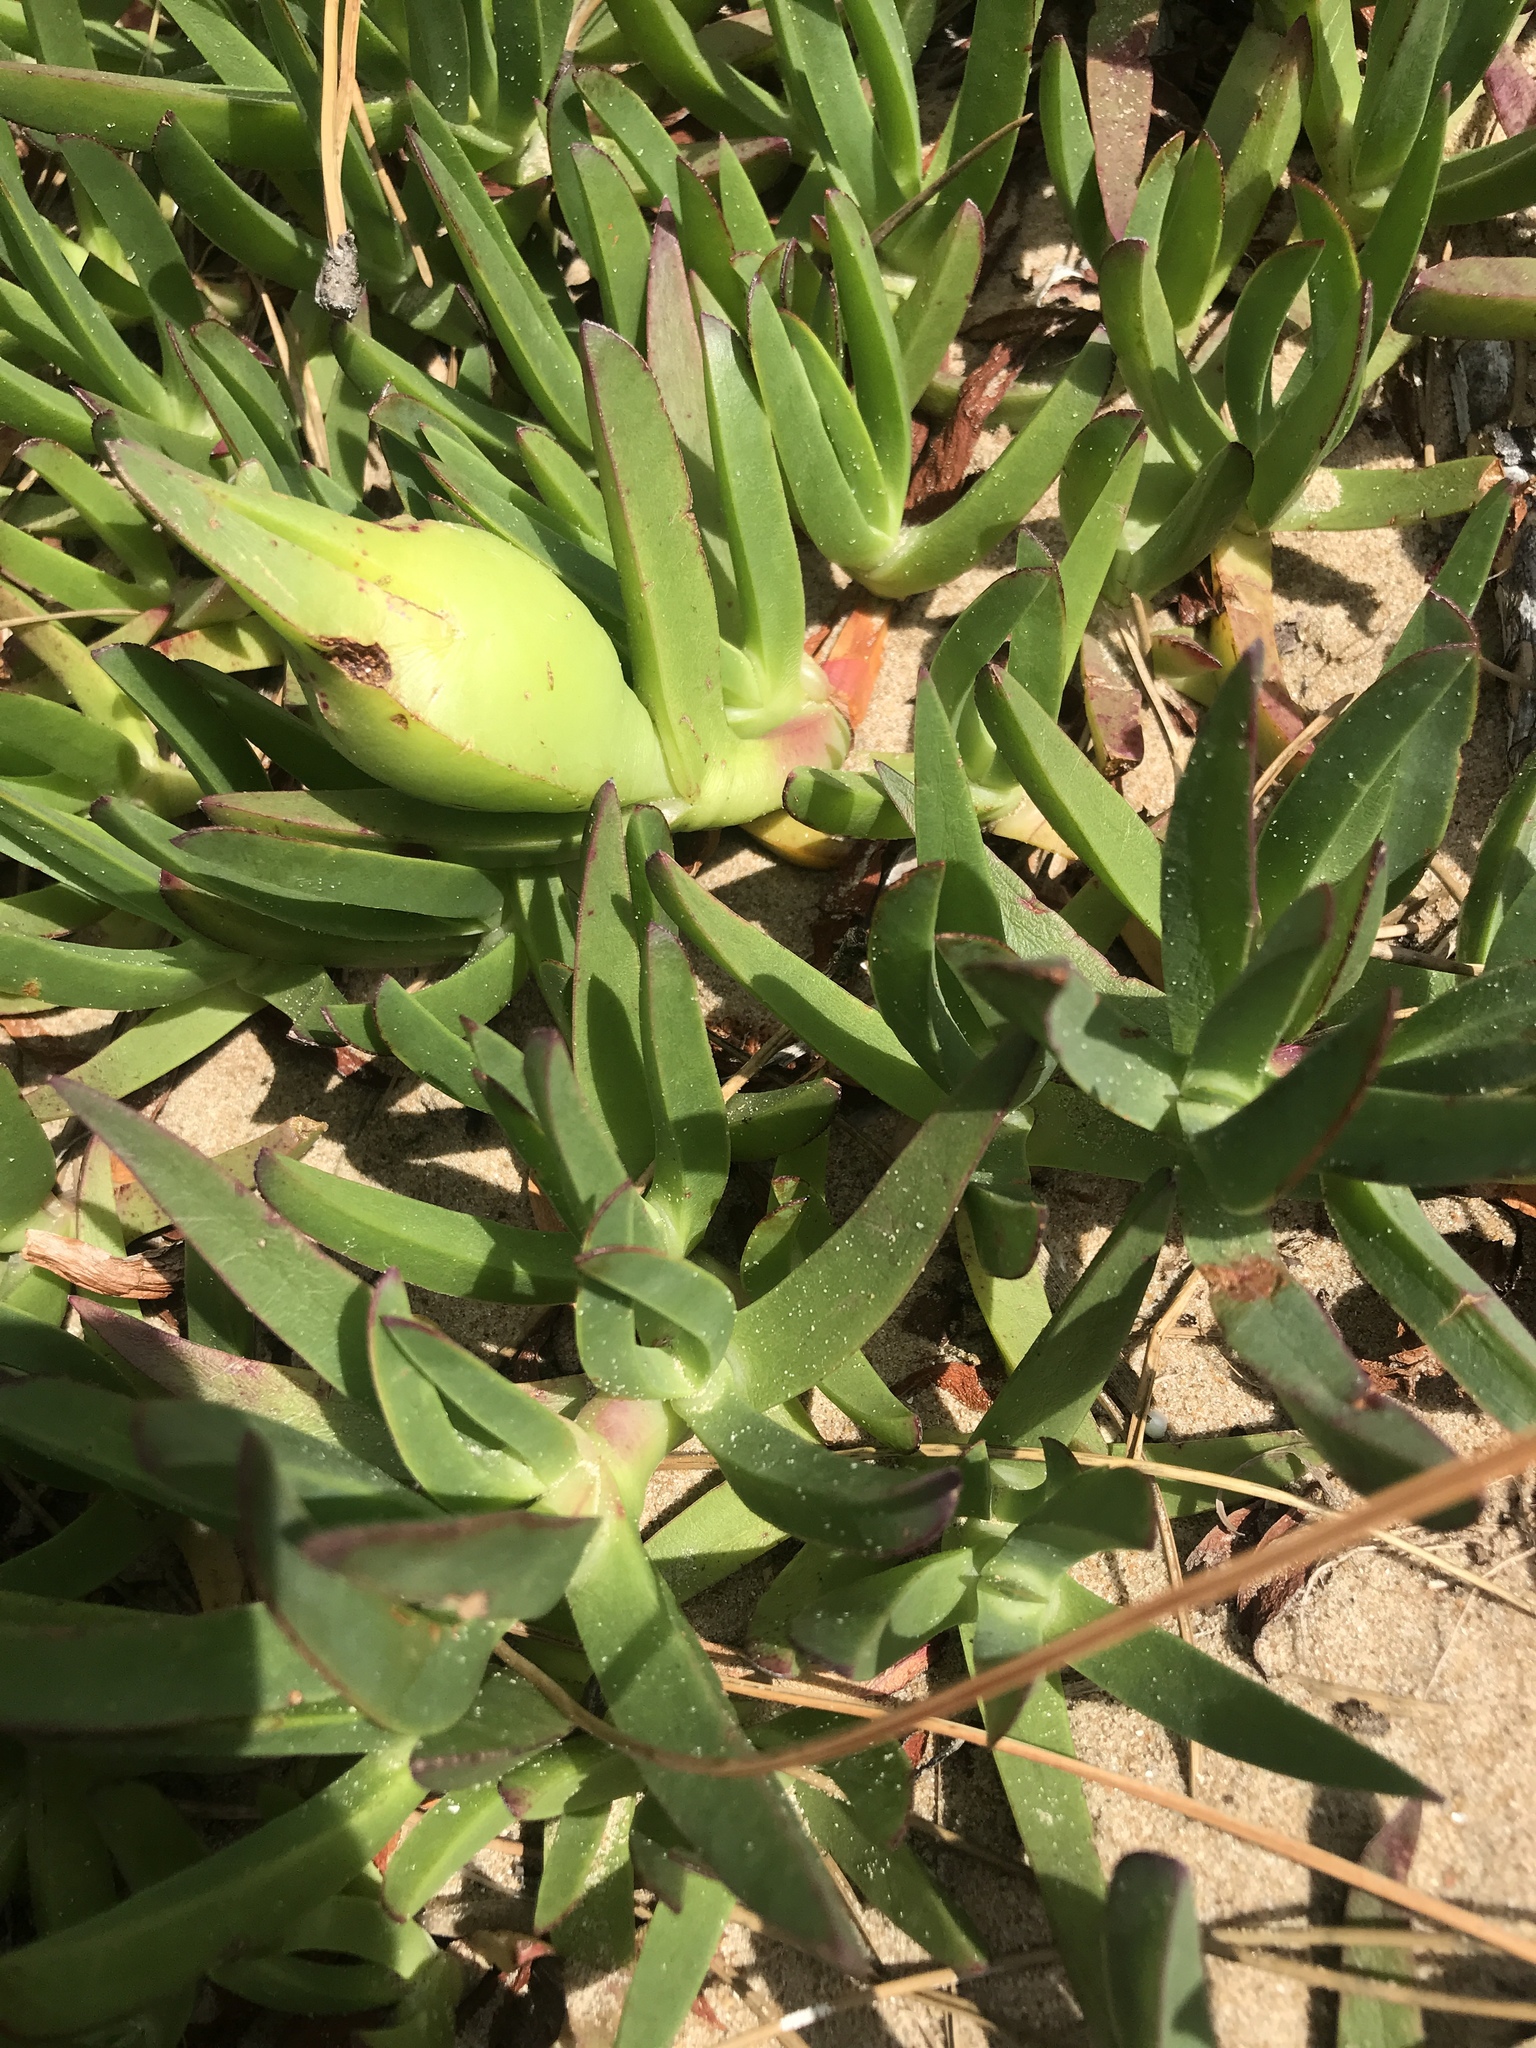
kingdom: Plantae
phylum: Tracheophyta
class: Magnoliopsida
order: Caryophyllales
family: Aizoaceae
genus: Carpobrotus
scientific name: Carpobrotus edulis
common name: Hottentot-fig
